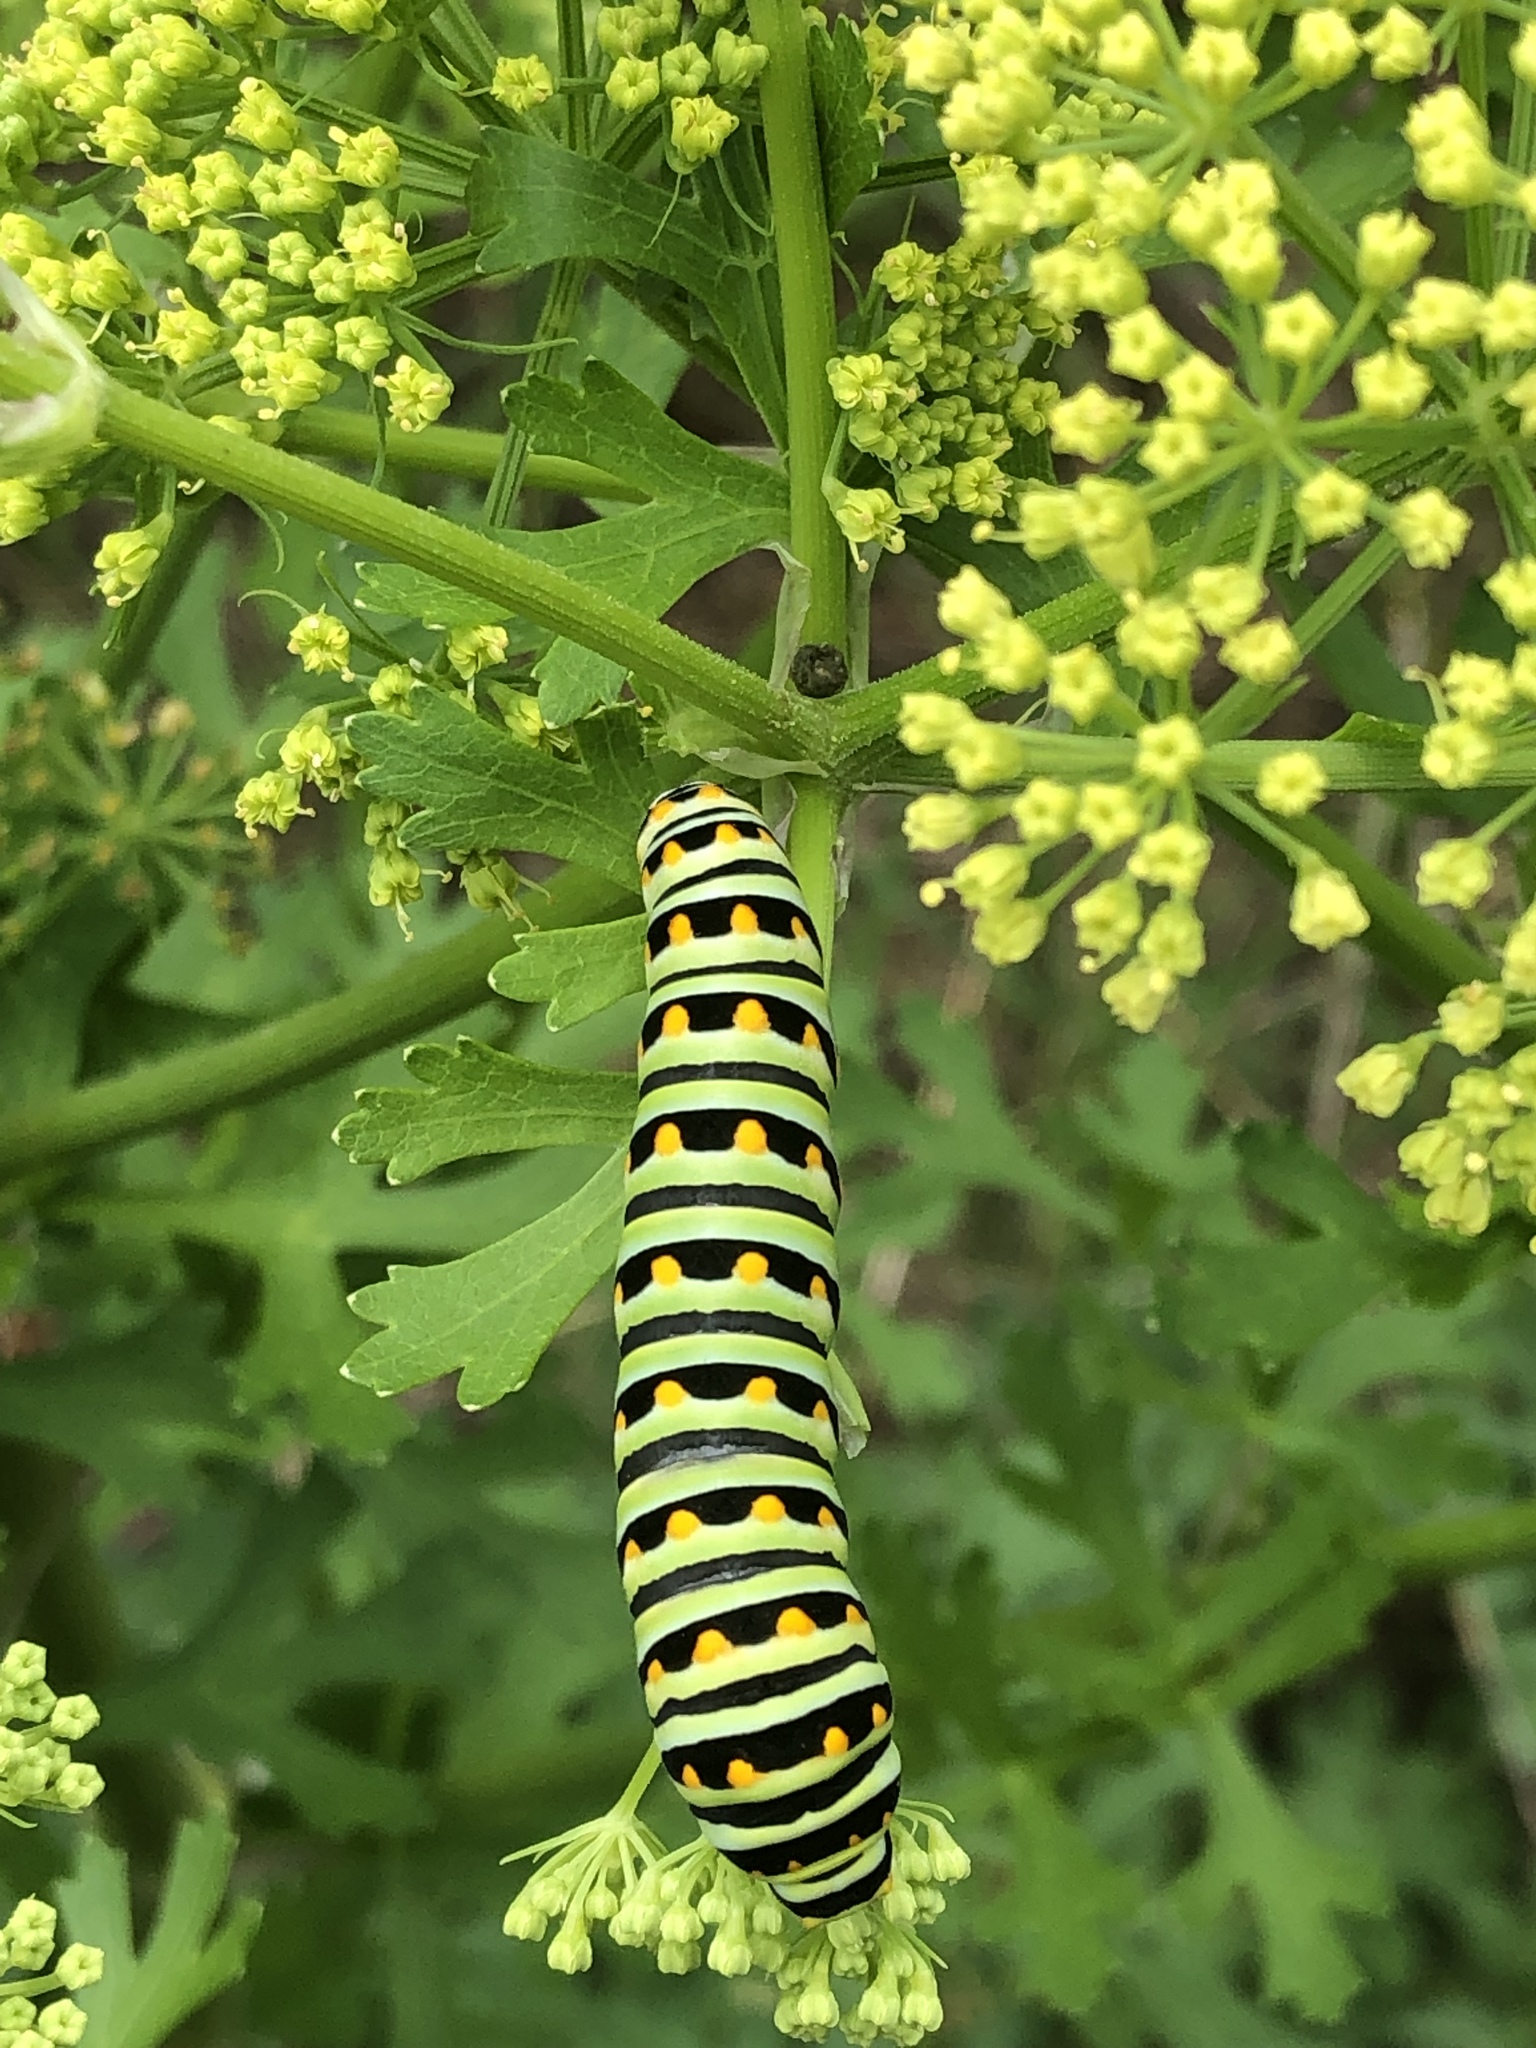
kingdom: Animalia
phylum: Arthropoda
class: Insecta
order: Lepidoptera
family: Papilionidae
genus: Papilio
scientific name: Papilio polyxenes
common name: Black swallowtail
